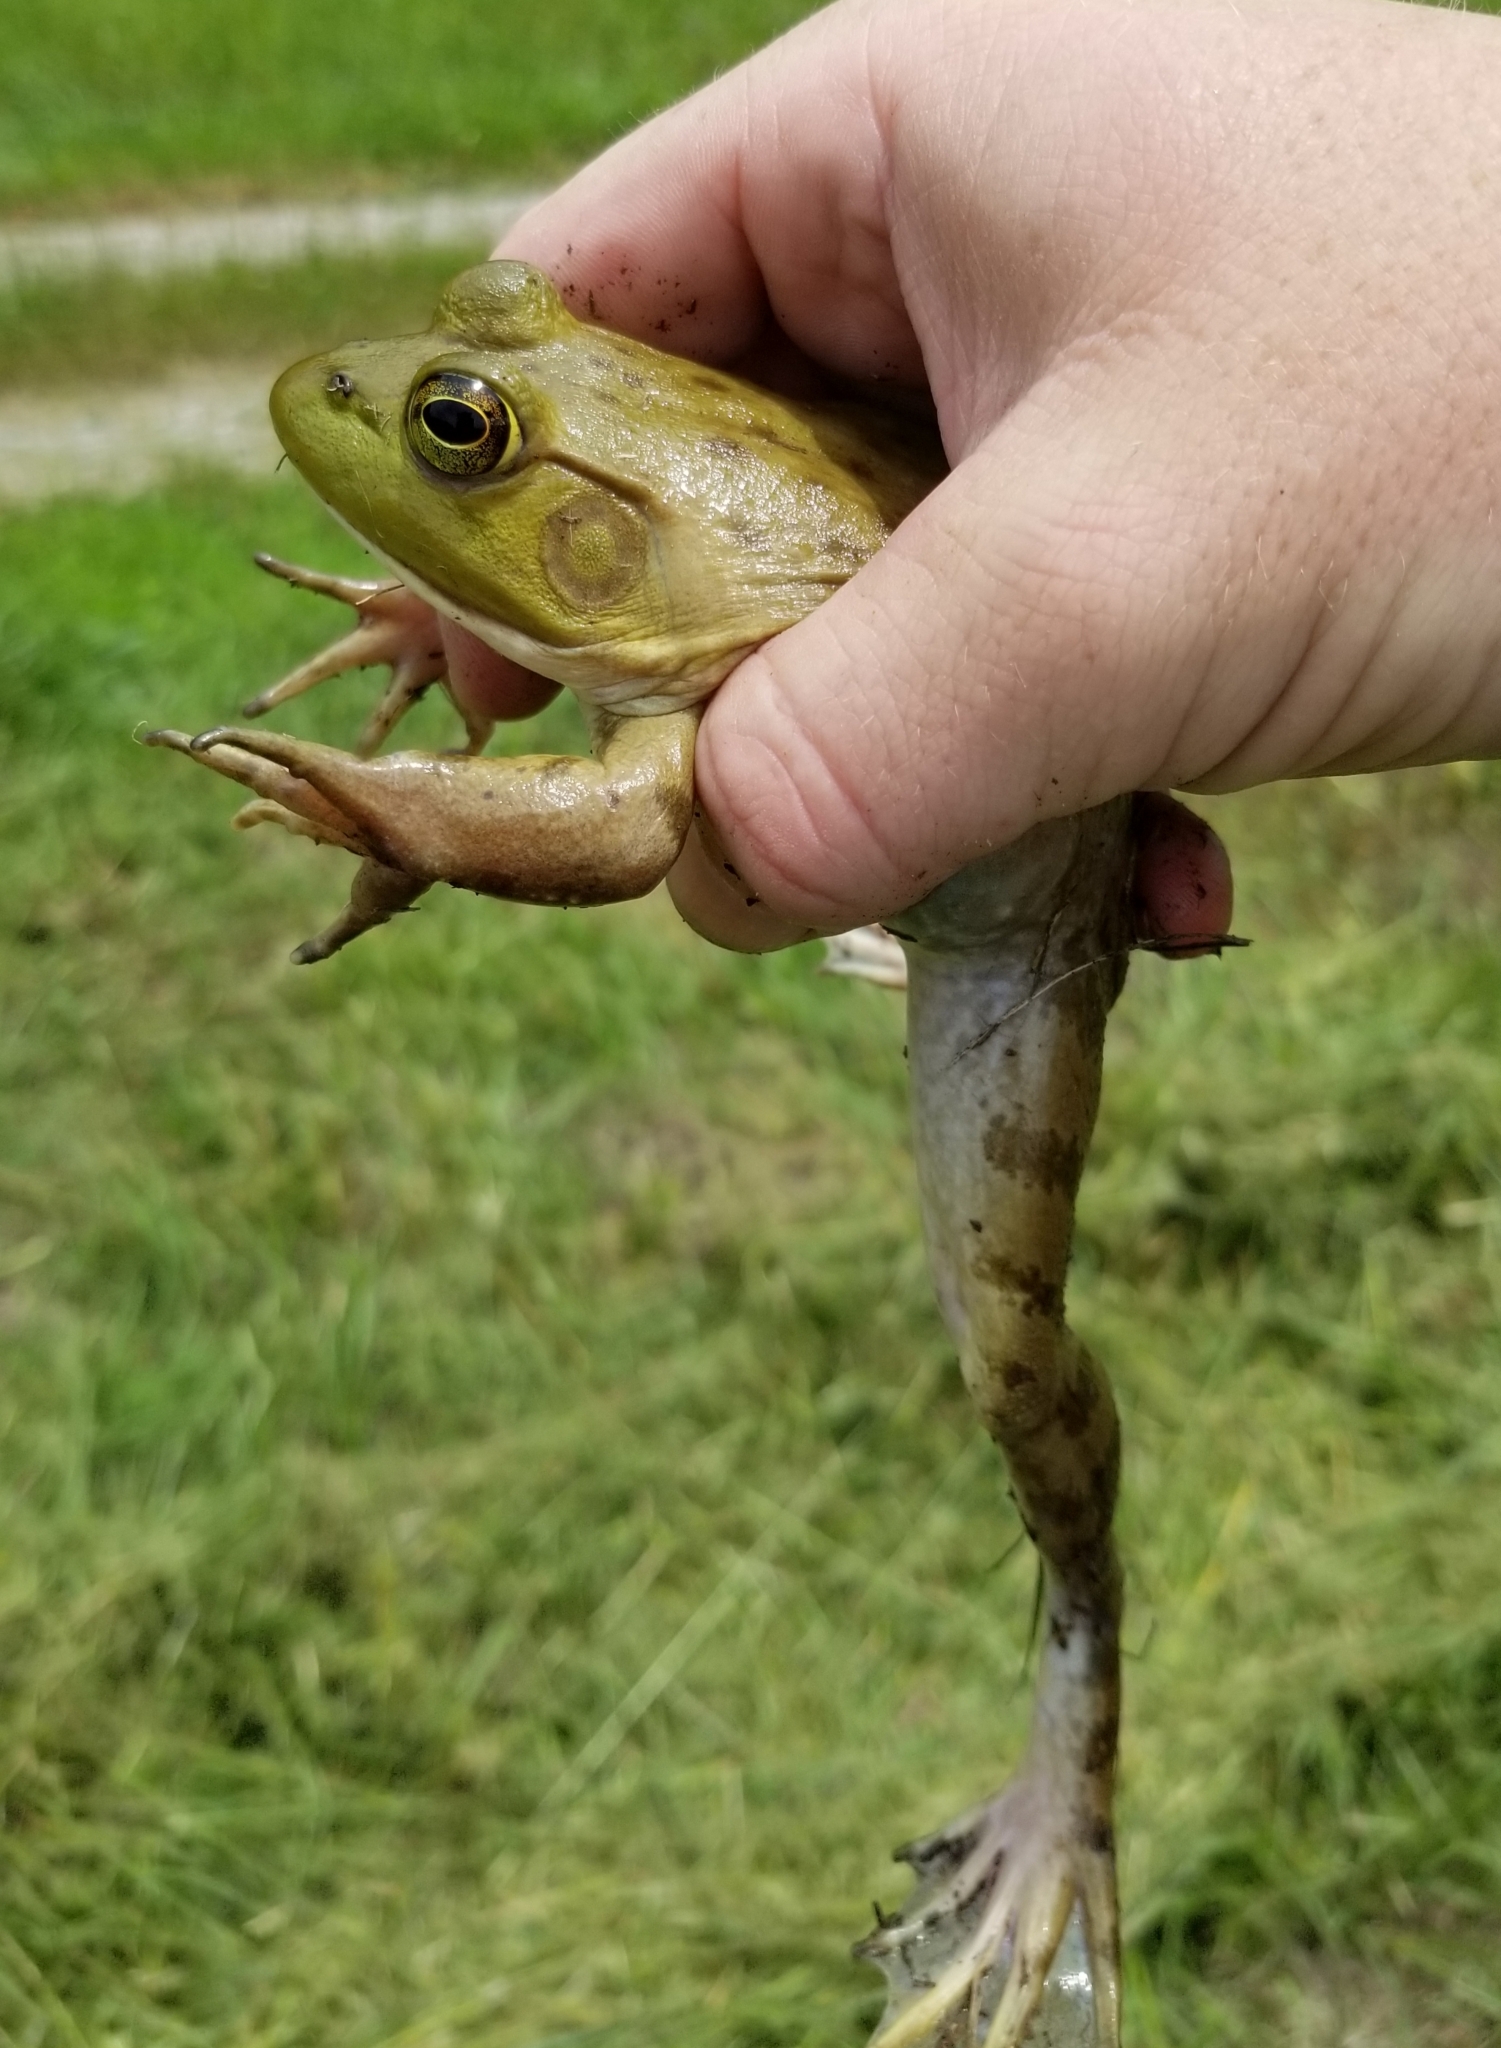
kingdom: Animalia
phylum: Chordata
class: Amphibia
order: Anura
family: Ranidae
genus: Lithobates
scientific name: Lithobates catesbeianus
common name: American bullfrog
